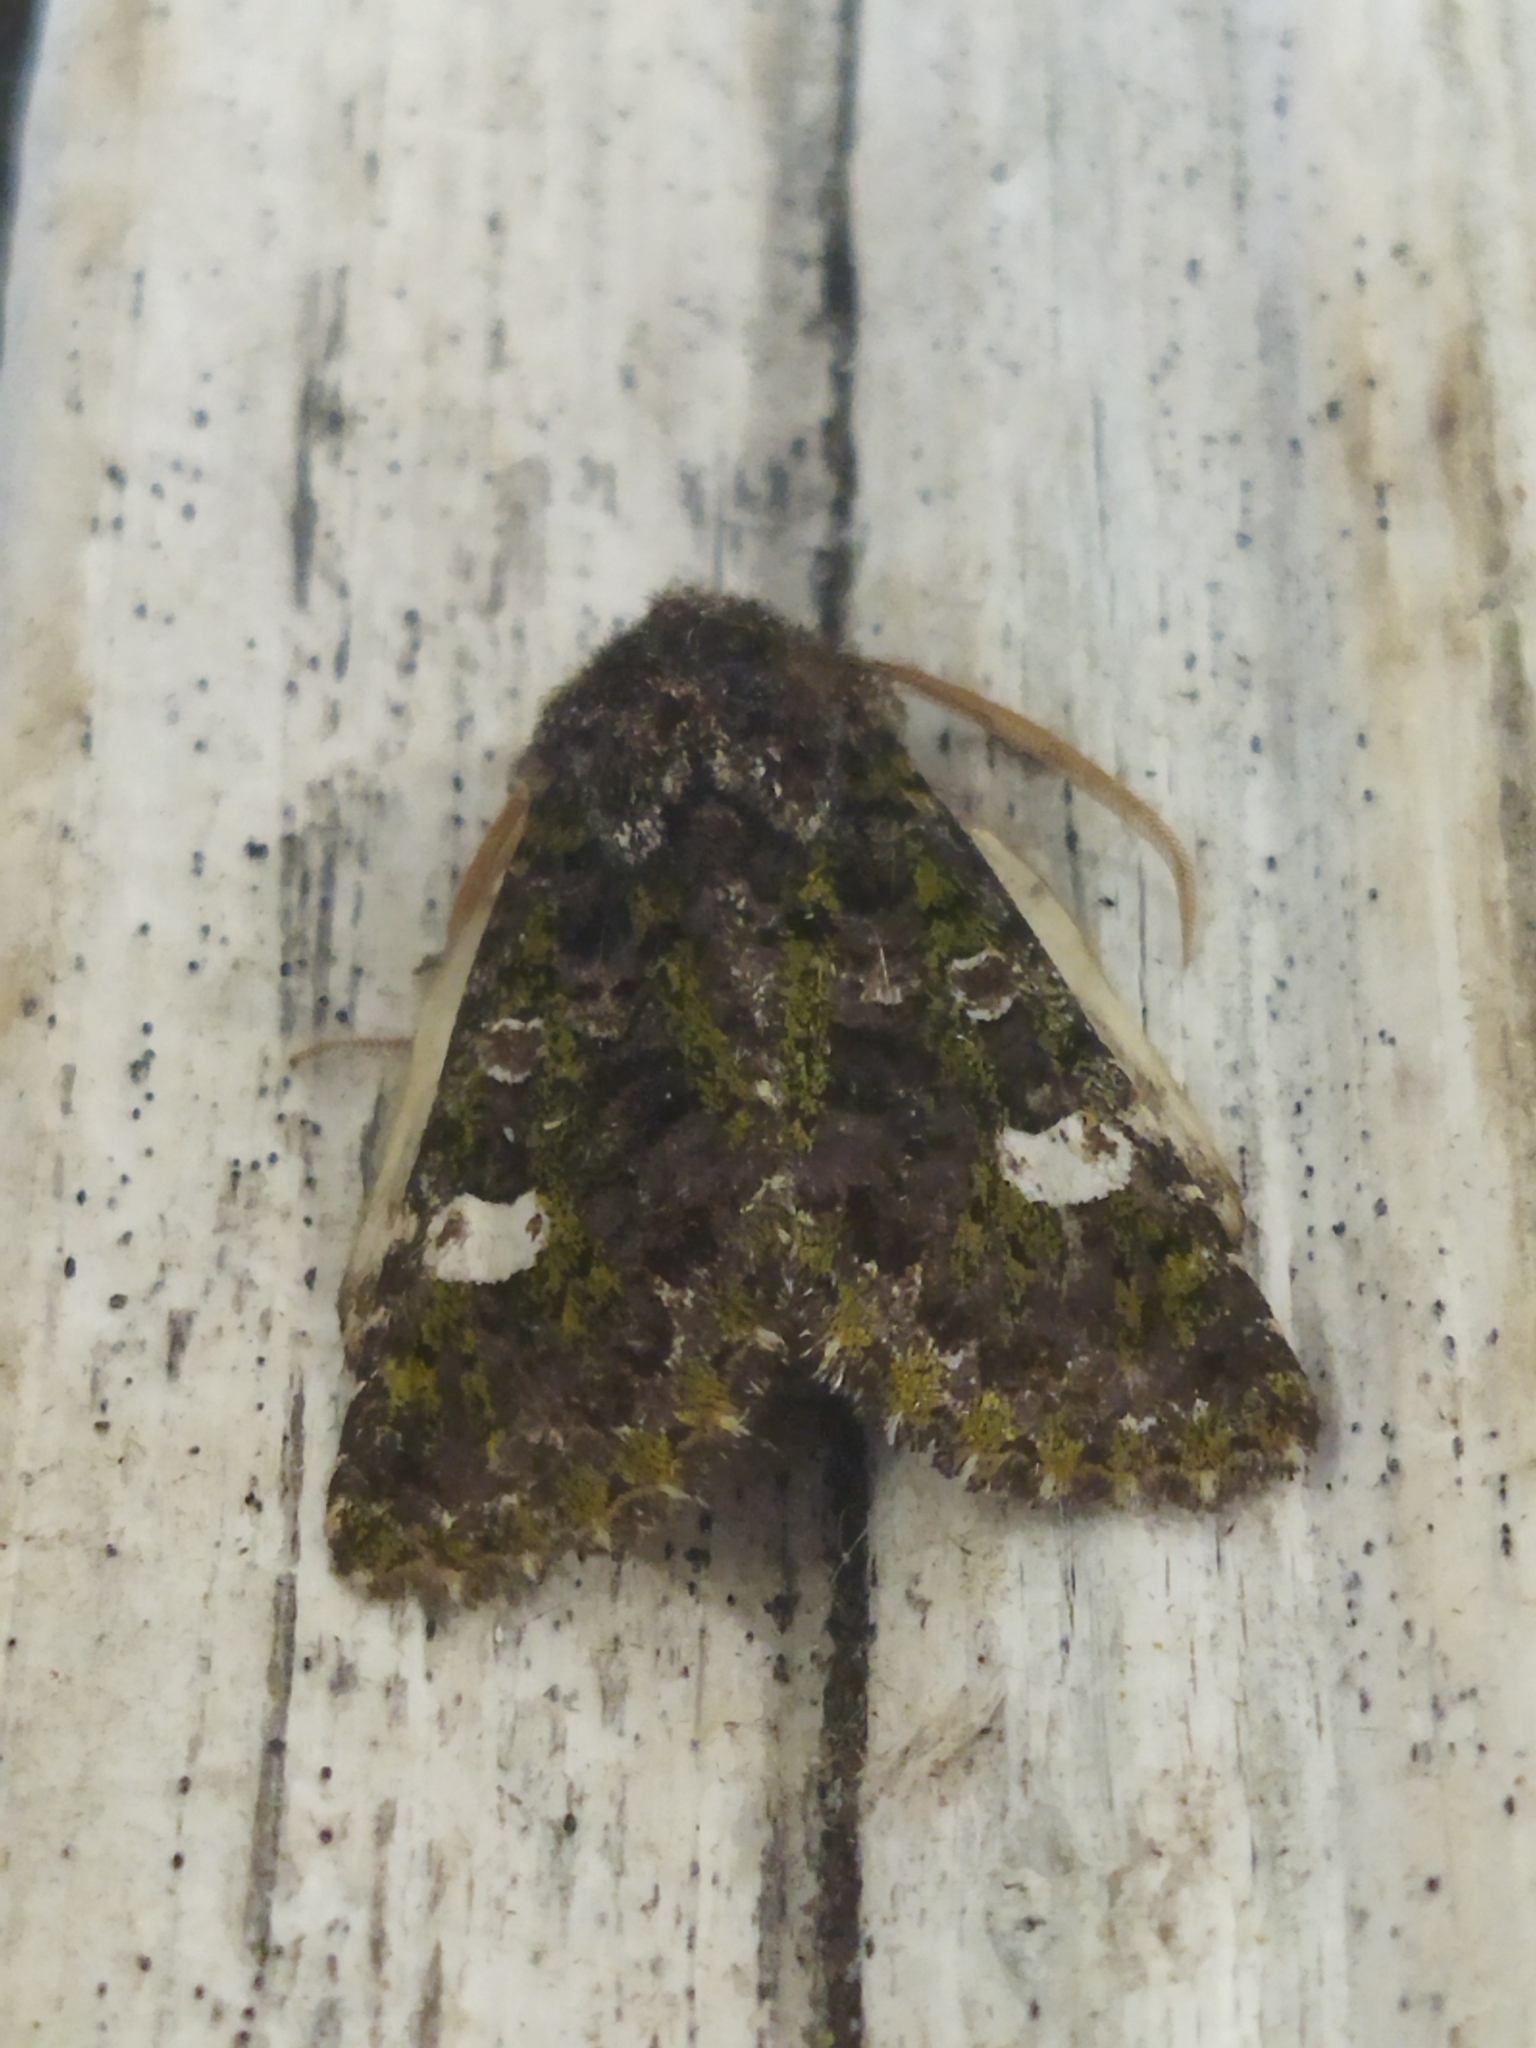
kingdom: Animalia
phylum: Arthropoda
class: Insecta
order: Lepidoptera
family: Noctuidae
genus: Valeria
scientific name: Valeria oleagina
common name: Green-brindled dot
